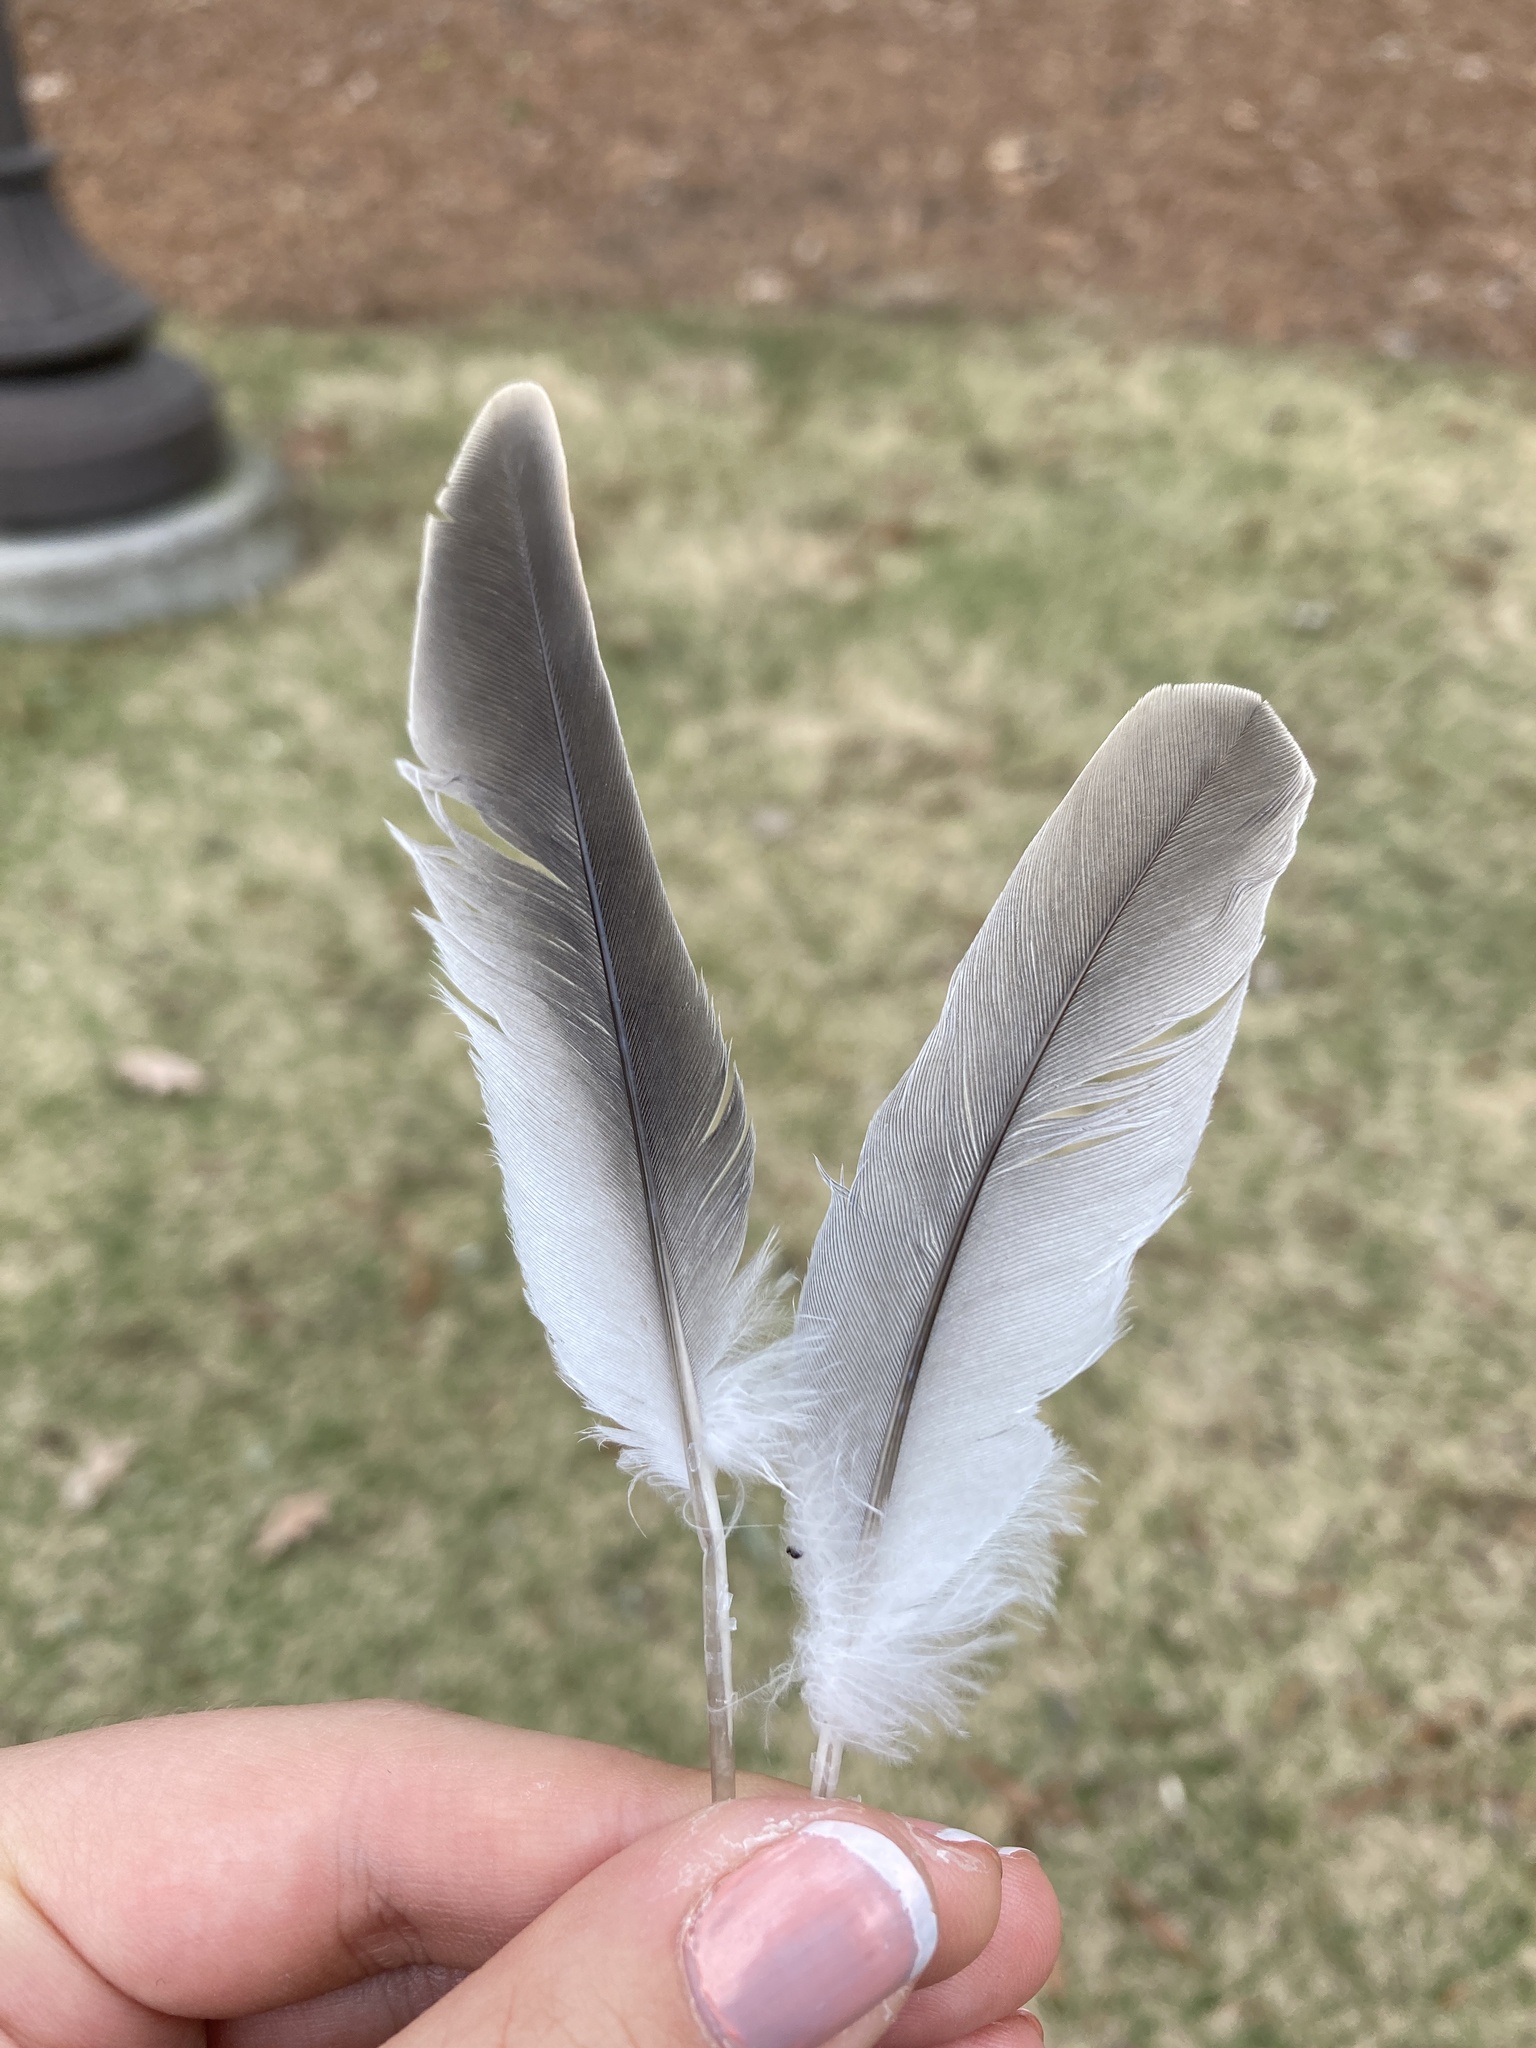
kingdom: Animalia
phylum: Chordata
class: Aves
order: Columbiformes
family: Columbidae
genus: Streptopelia
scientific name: Streptopelia decaocto
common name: Eurasian collared dove
